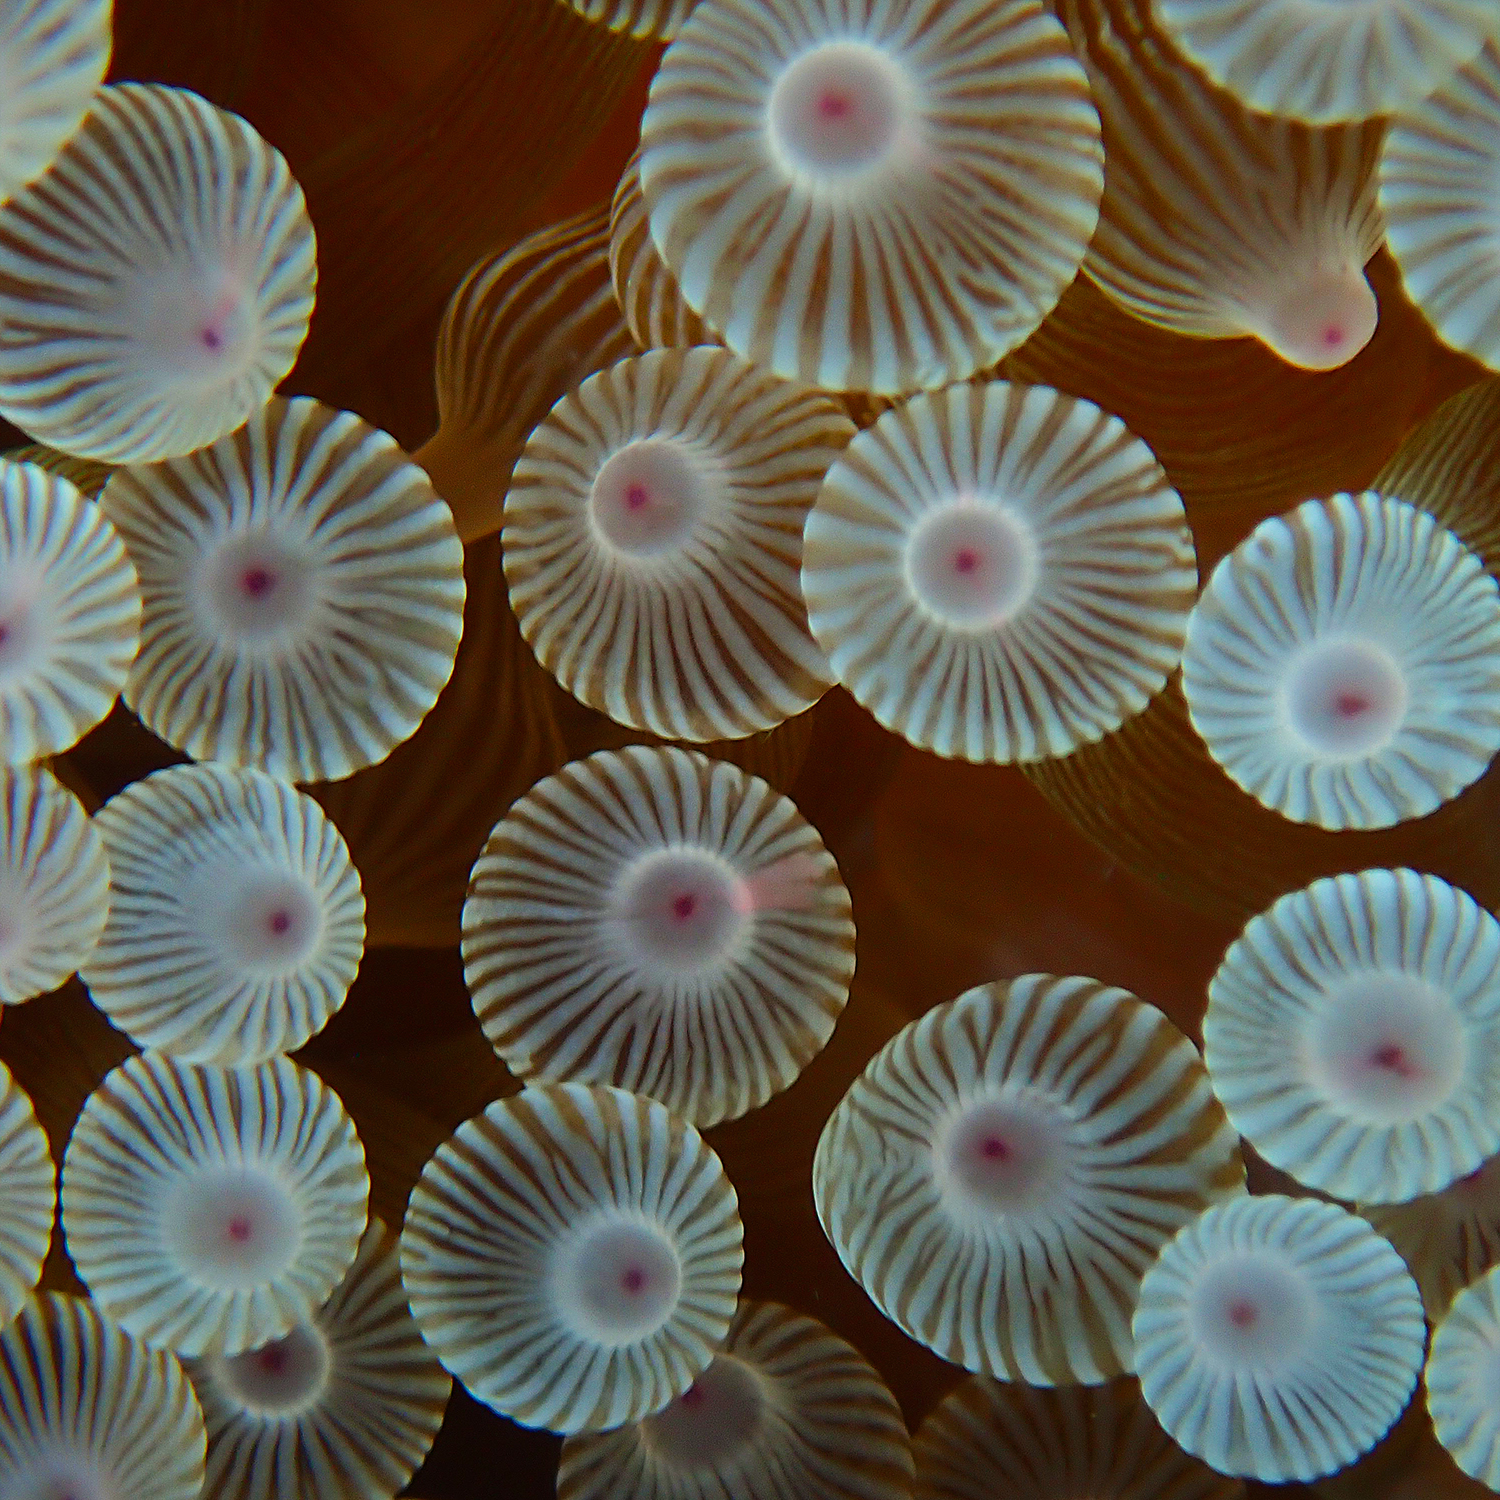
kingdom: Animalia
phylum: Cnidaria
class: Anthozoa
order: Actiniaria
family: Actiniidae
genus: Entacmaea
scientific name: Entacmaea quadricolor
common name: Bulb tentacle sea anemone
